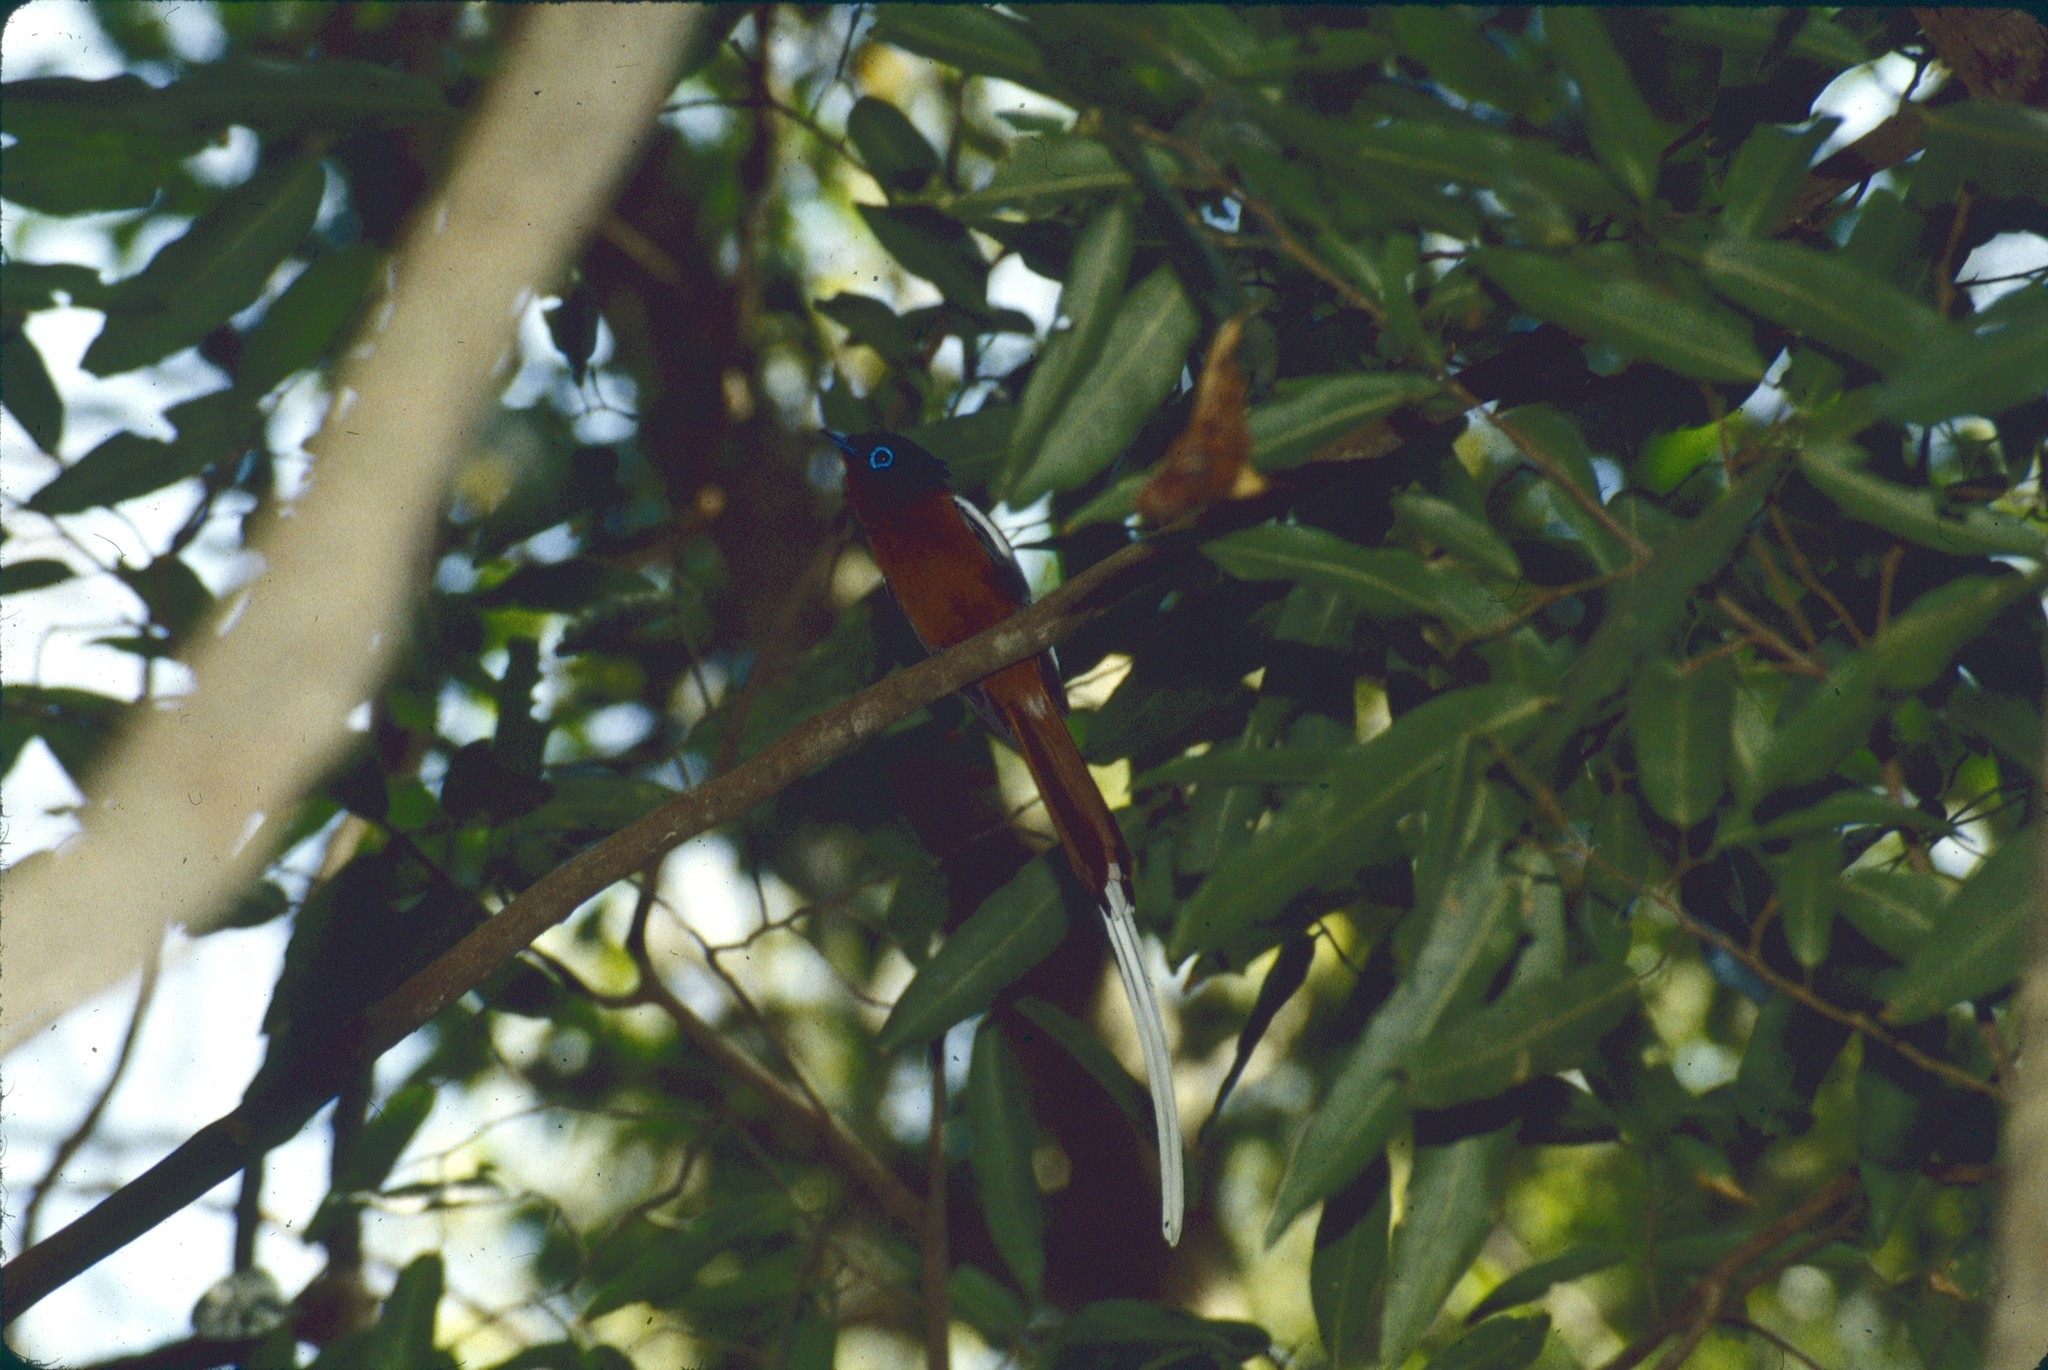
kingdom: Animalia
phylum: Chordata
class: Aves
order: Passeriformes
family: Monarchidae
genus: Terpsiphone
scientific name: Terpsiphone mutata
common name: Malagasy paradise flycatcher
